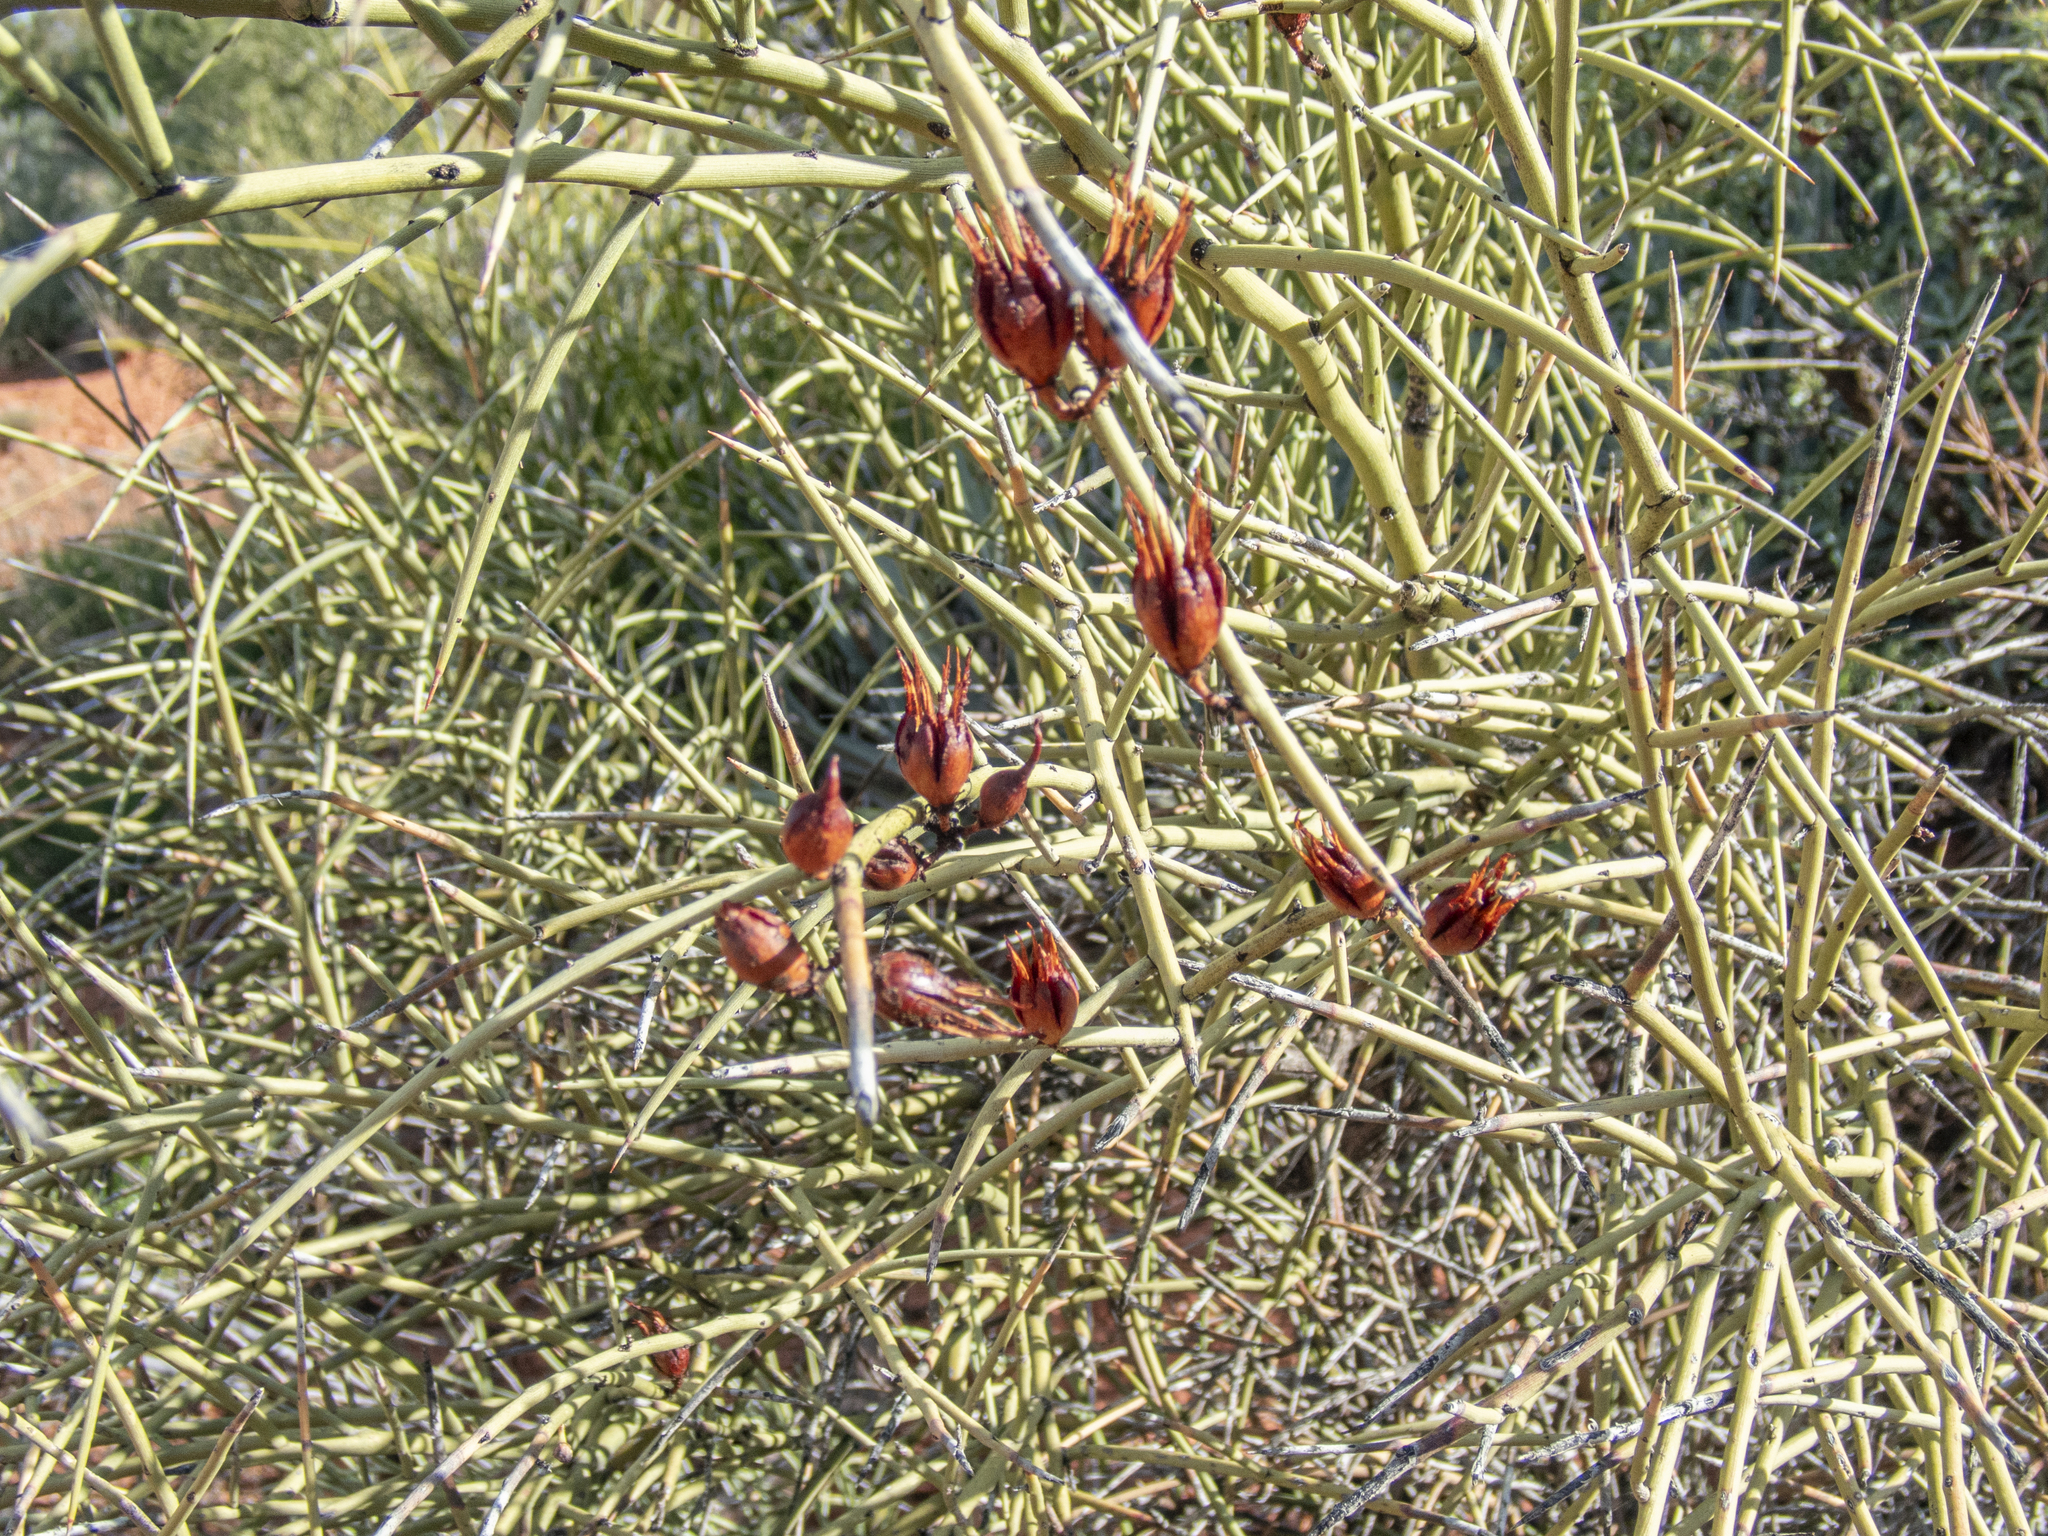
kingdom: Plantae
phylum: Tracheophyta
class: Magnoliopsida
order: Celastrales
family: Celastraceae
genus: Canotia
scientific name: Canotia holacantha
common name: Crucifixion thorns
